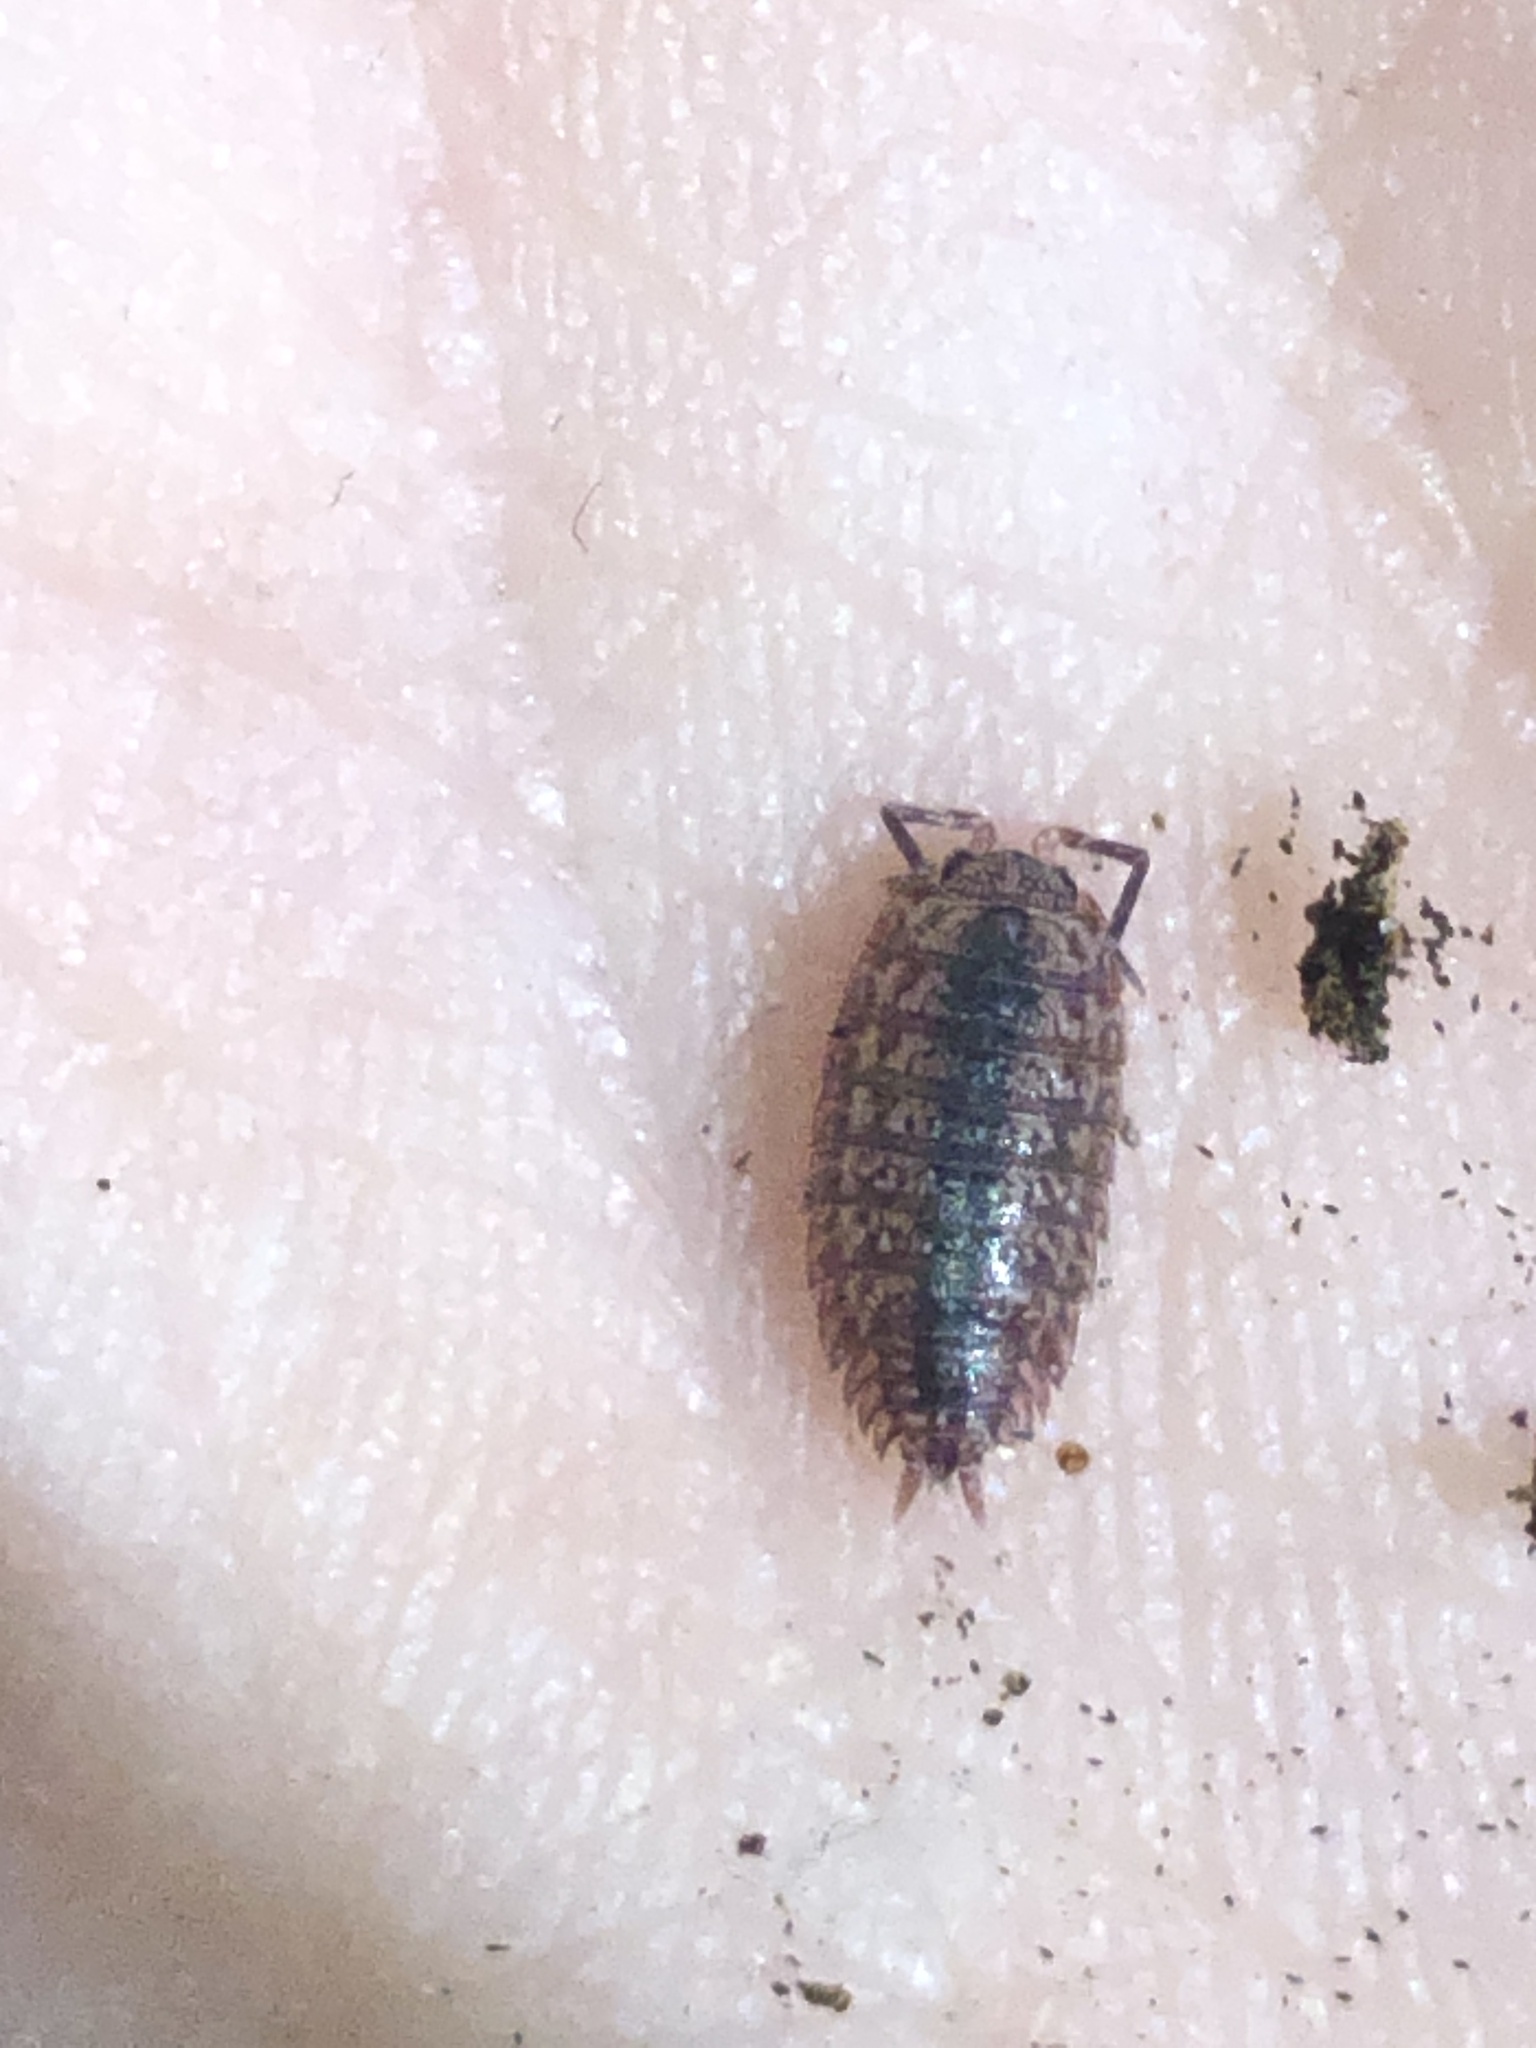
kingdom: Animalia
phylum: Arthropoda
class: Malacostraca
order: Isopoda
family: Porcellionidae
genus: Porcellionides
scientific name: Porcellionides virgatus
